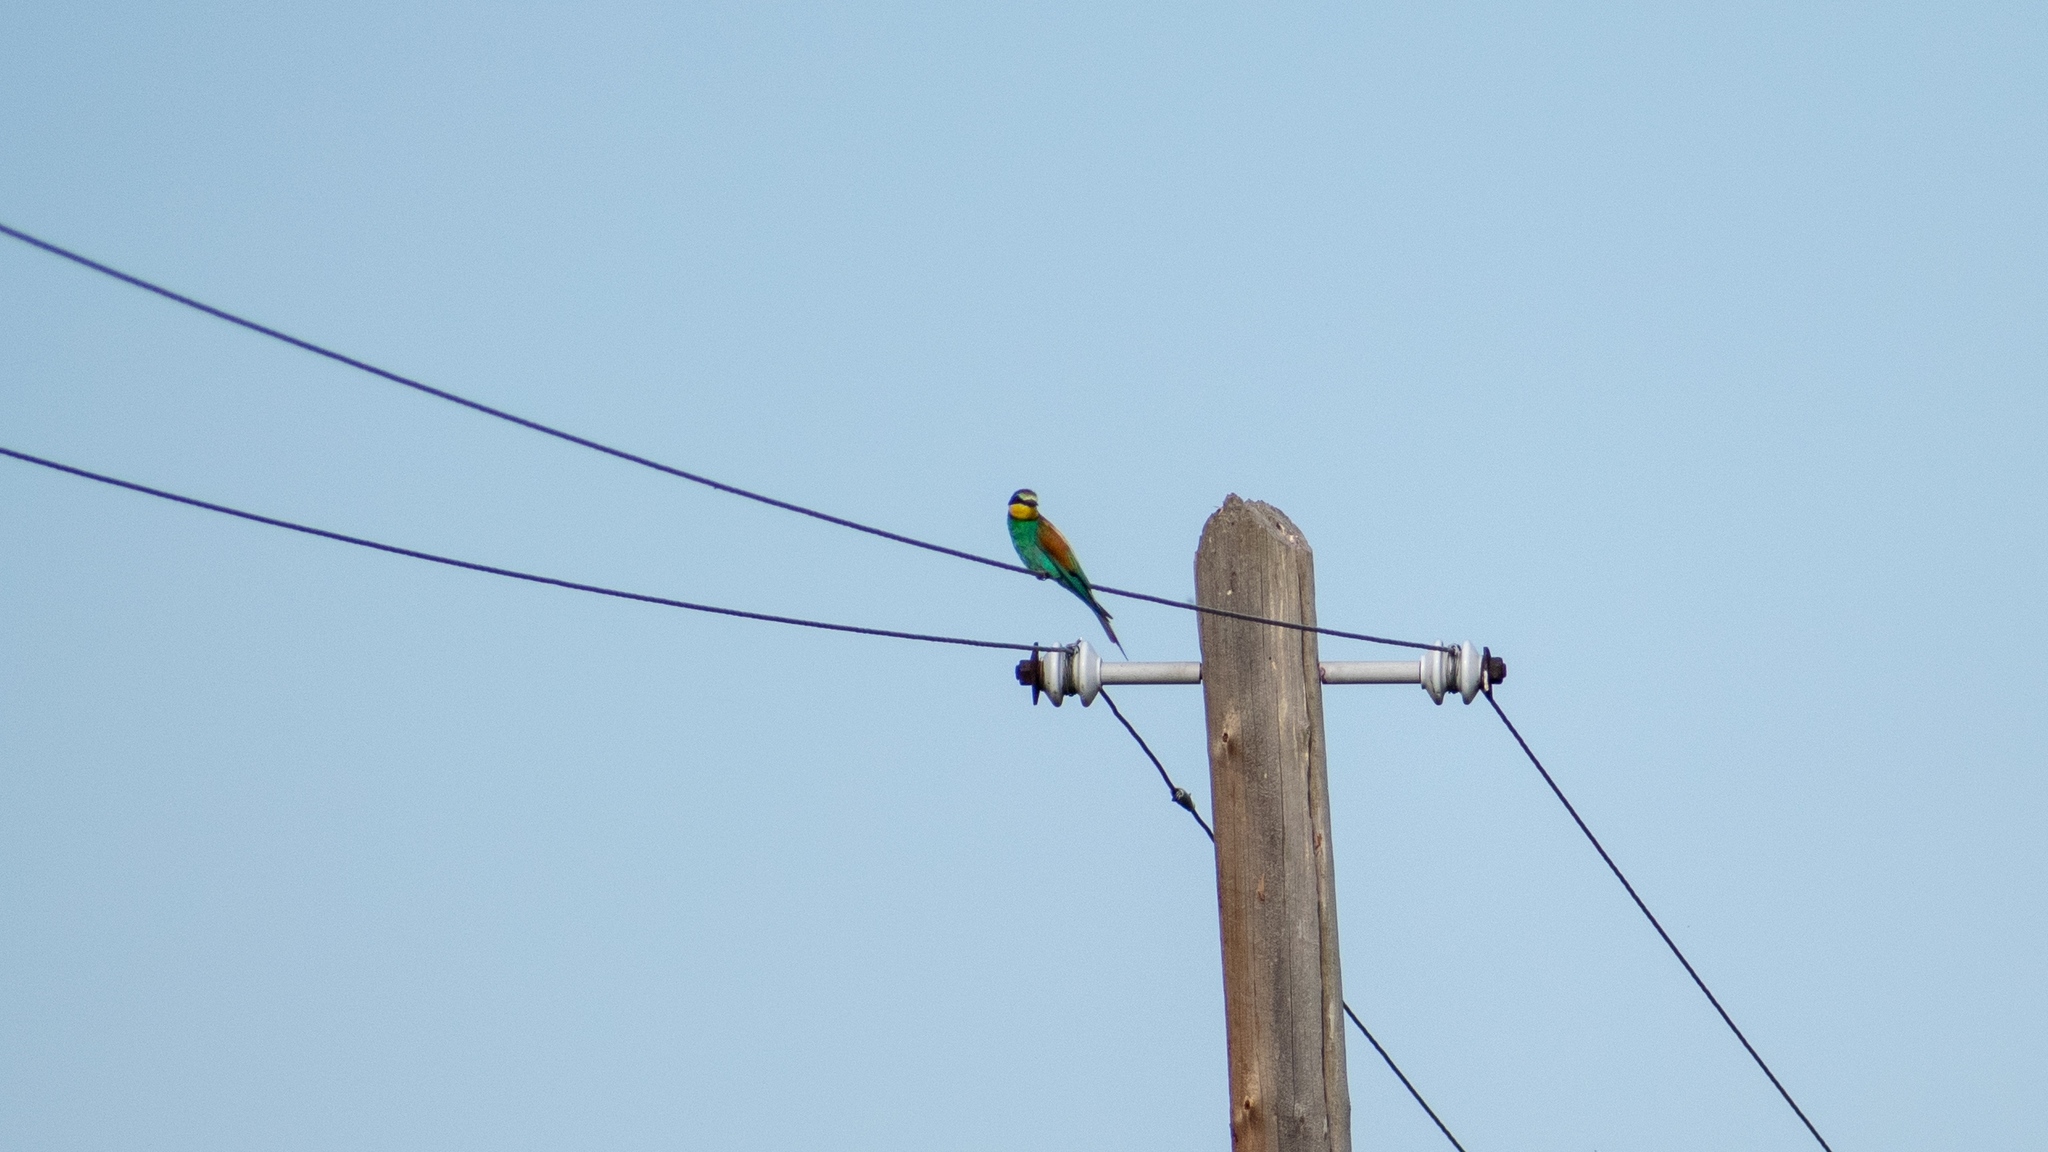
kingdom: Animalia
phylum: Chordata
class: Aves
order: Coraciiformes
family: Meropidae
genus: Merops
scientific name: Merops apiaster
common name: European bee-eater
